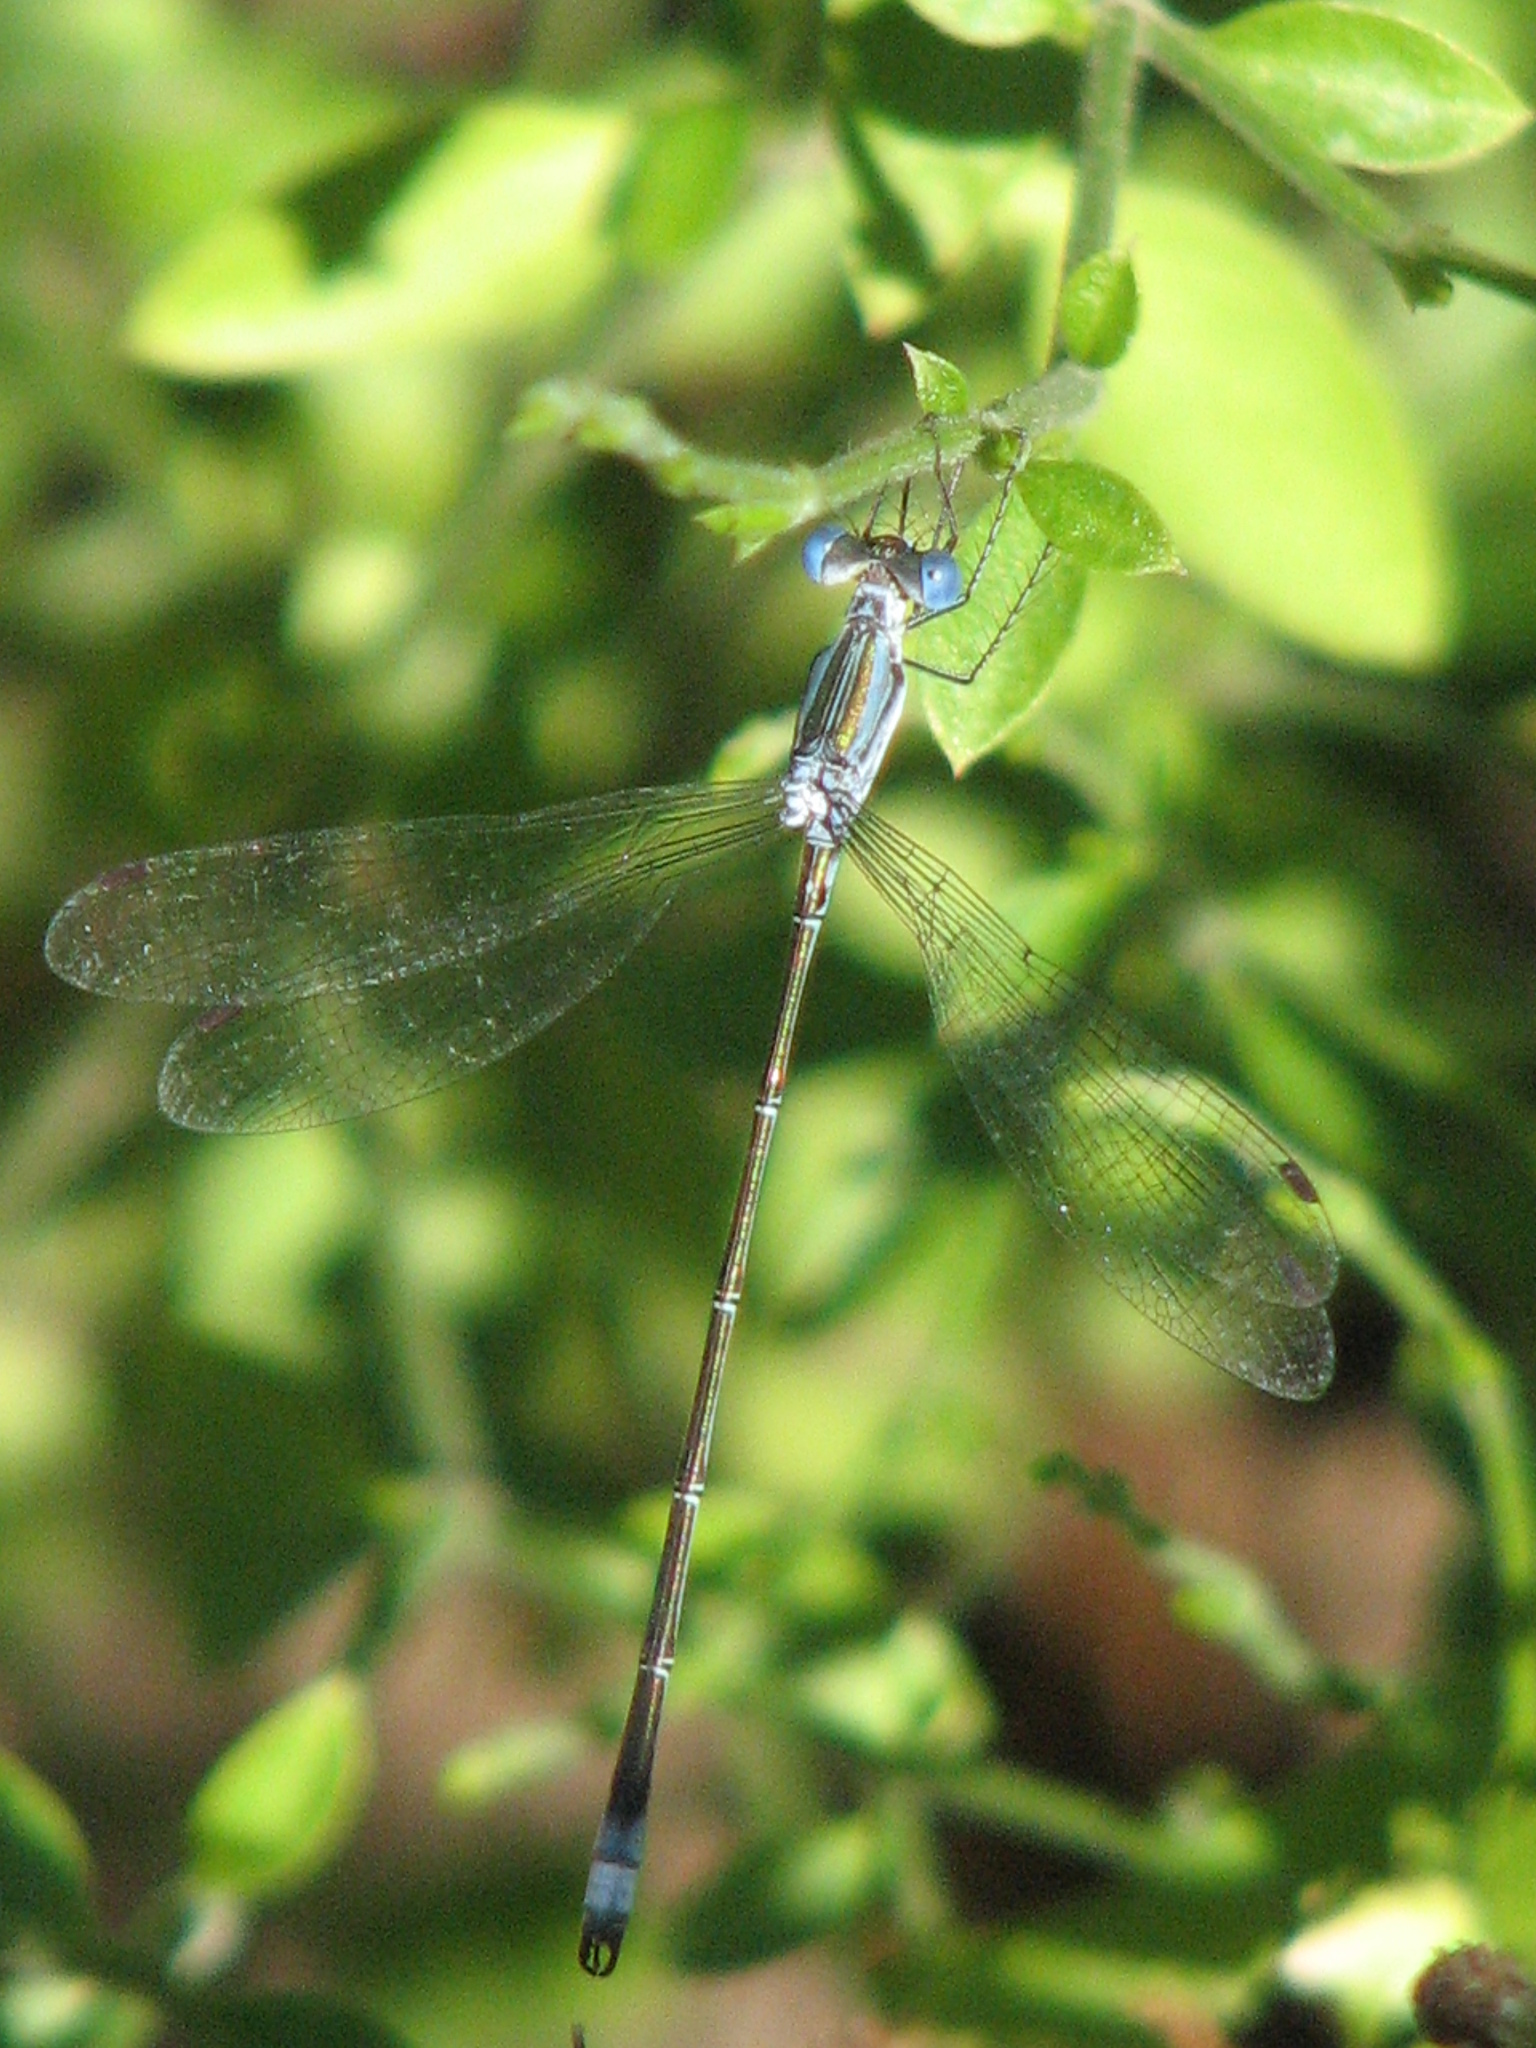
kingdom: Animalia
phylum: Arthropoda
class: Insecta
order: Odonata
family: Lestidae
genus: Lestes
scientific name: Lestes forficula
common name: Rainpool spreadwing
